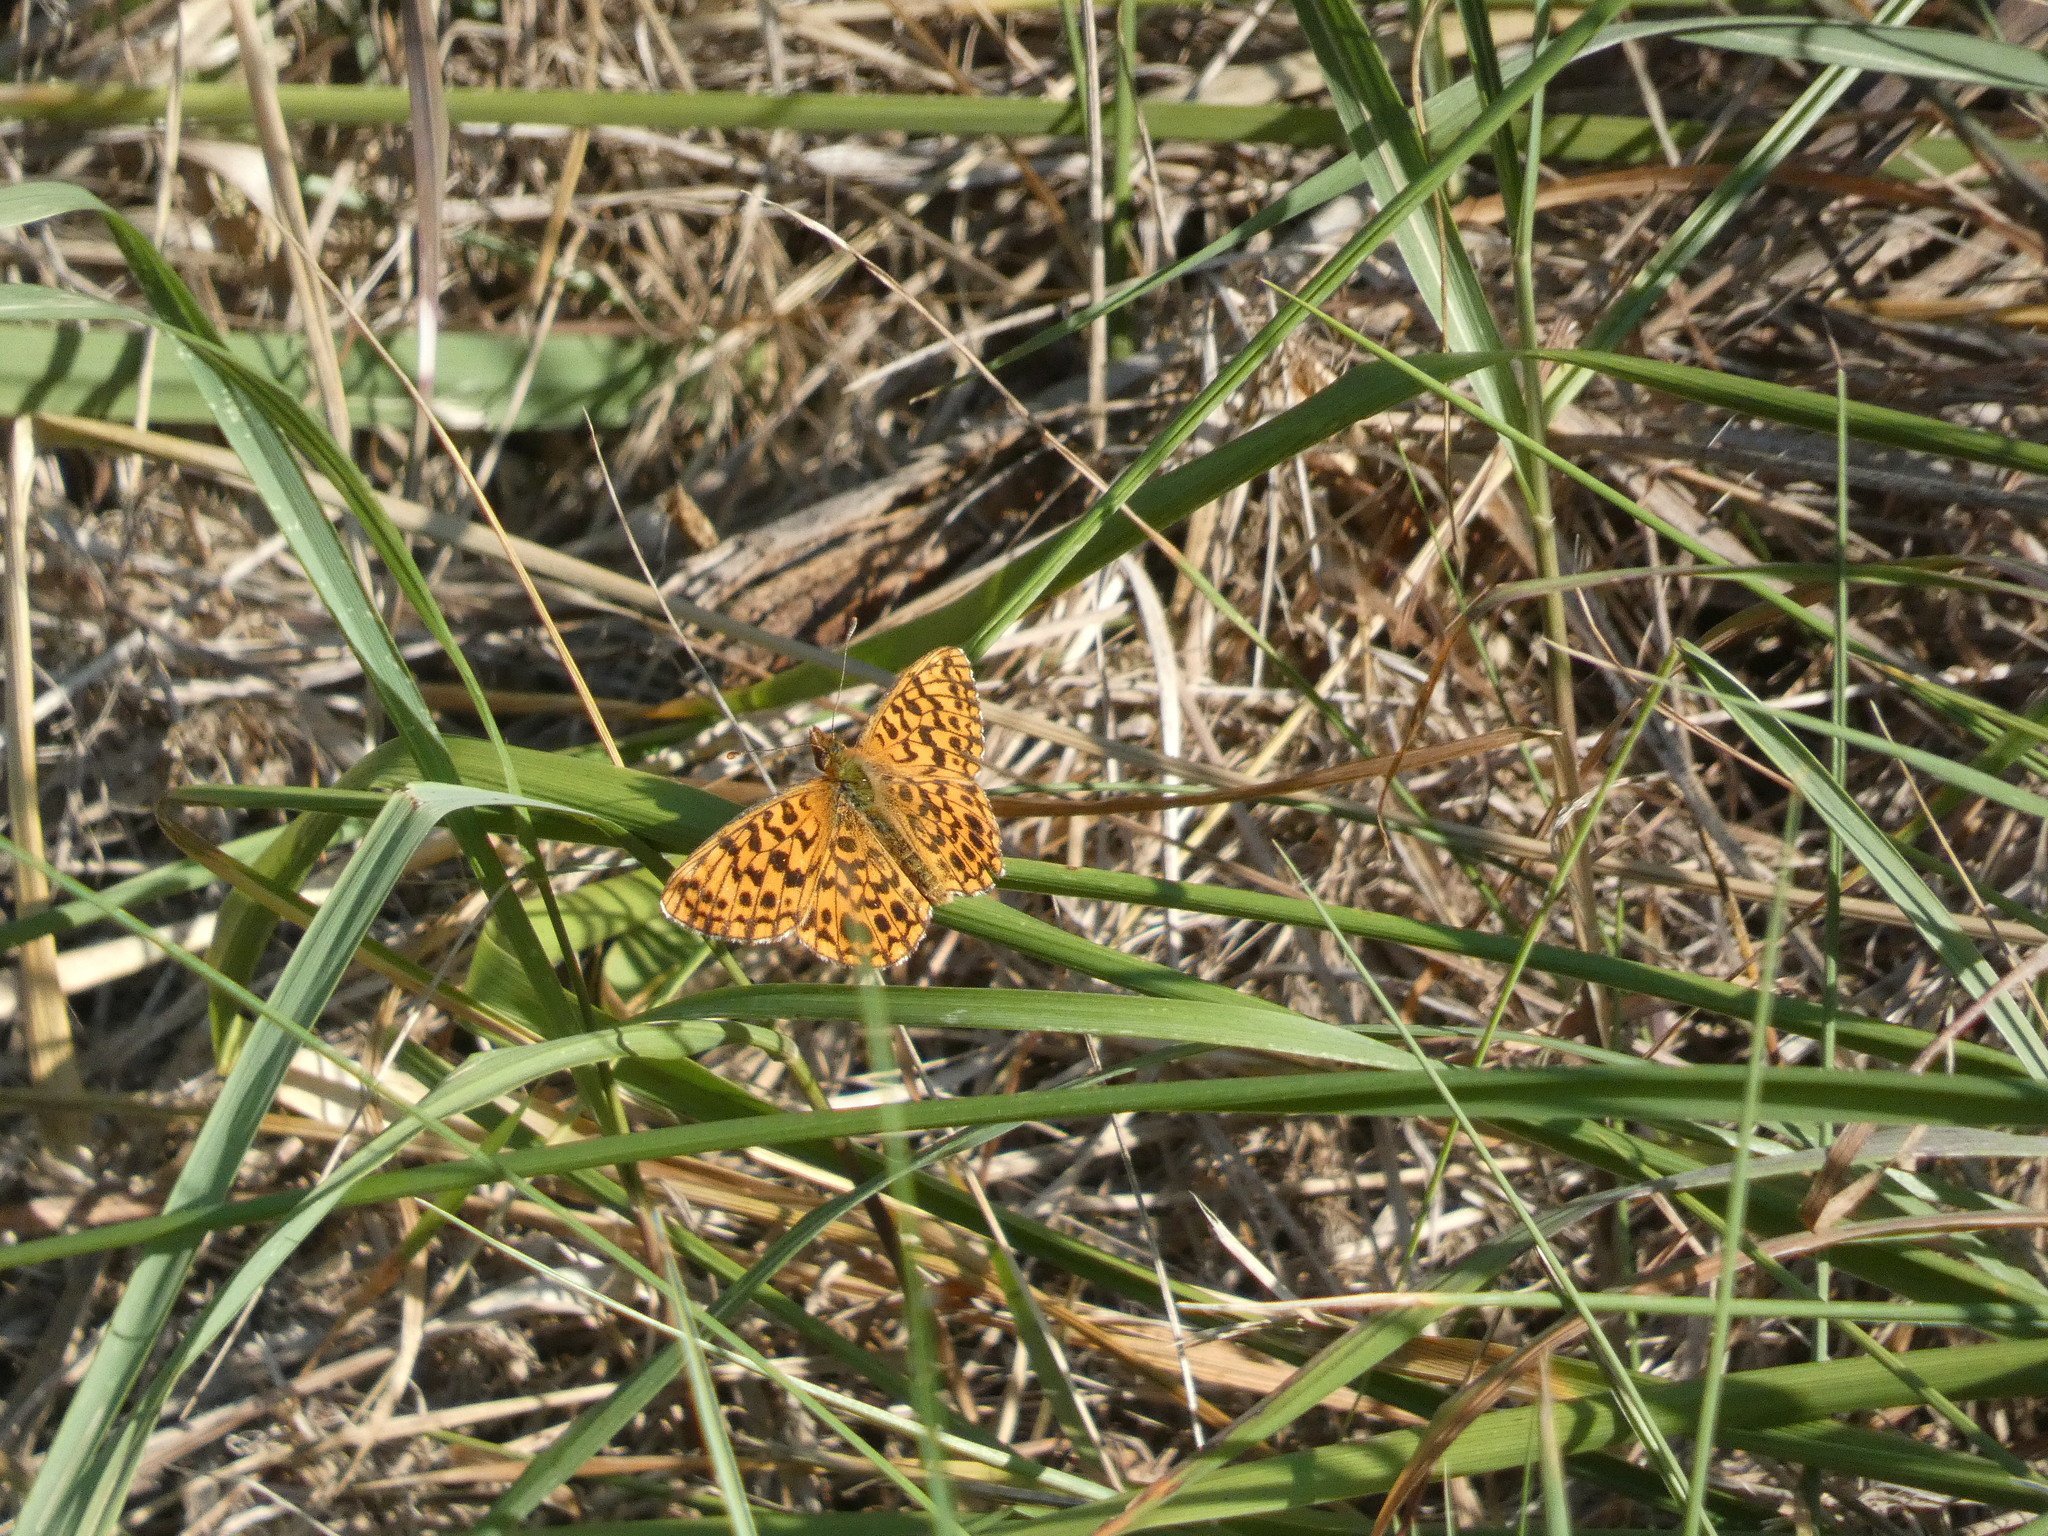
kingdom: Animalia
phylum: Arthropoda
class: Insecta
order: Lepidoptera
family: Nymphalidae
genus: Boloria
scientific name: Boloria dia
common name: Weaver's fritillary
